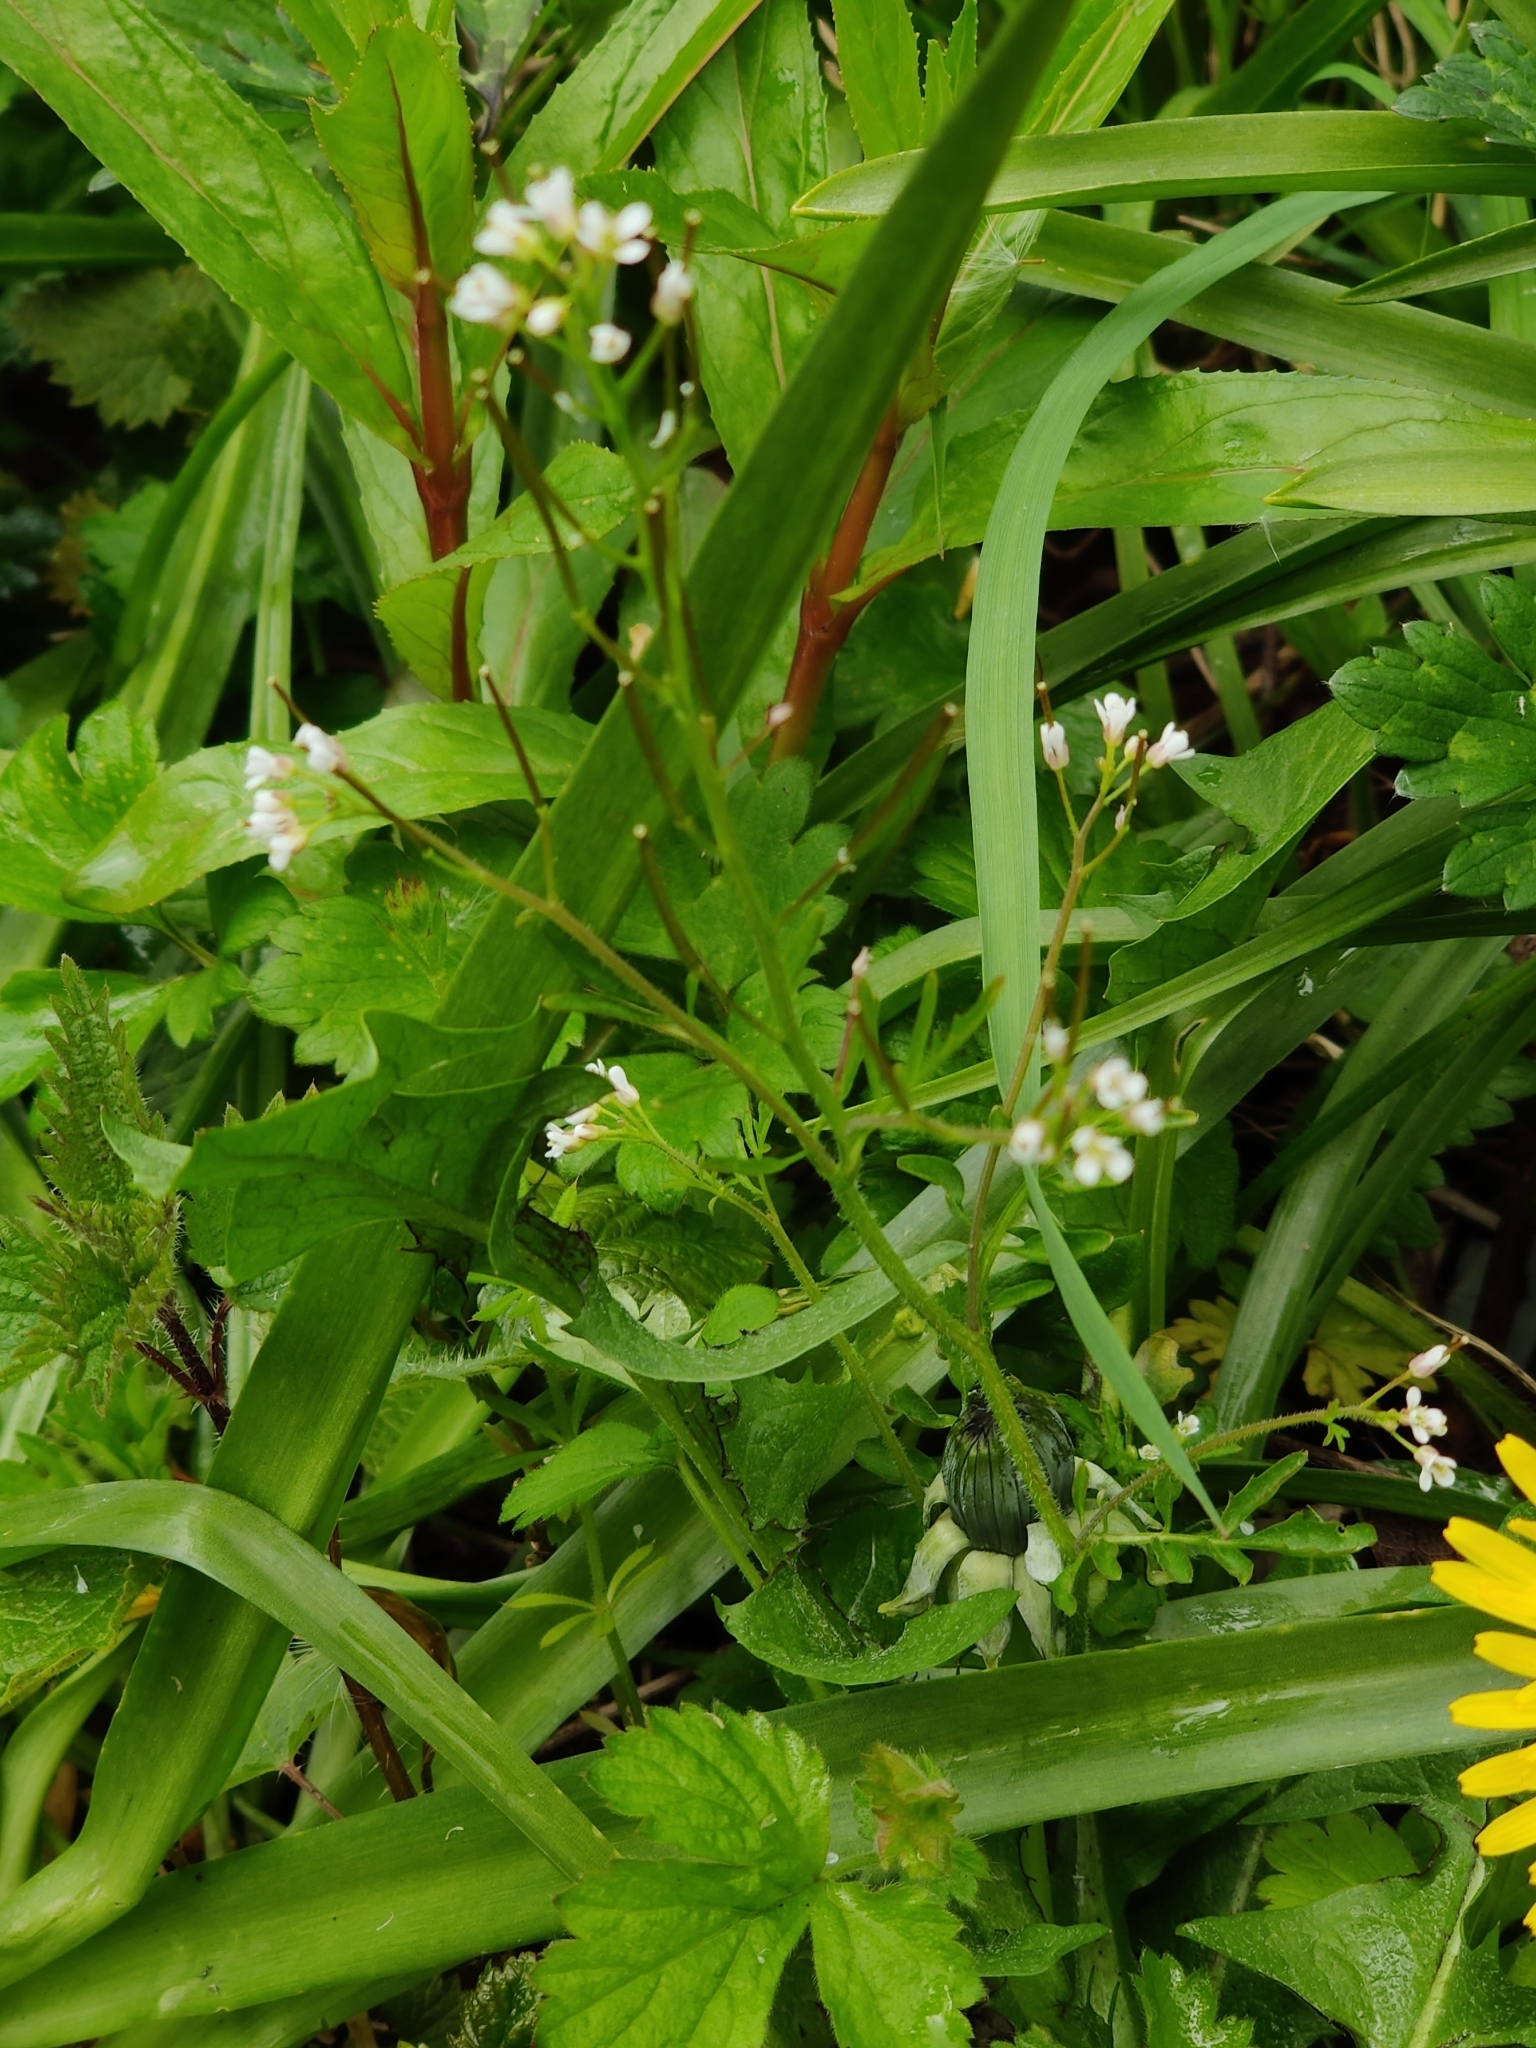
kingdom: Plantae
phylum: Tracheophyta
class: Magnoliopsida
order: Brassicales
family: Brassicaceae
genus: Cardamine
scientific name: Cardamine flexuosa
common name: Woodland bittercress
